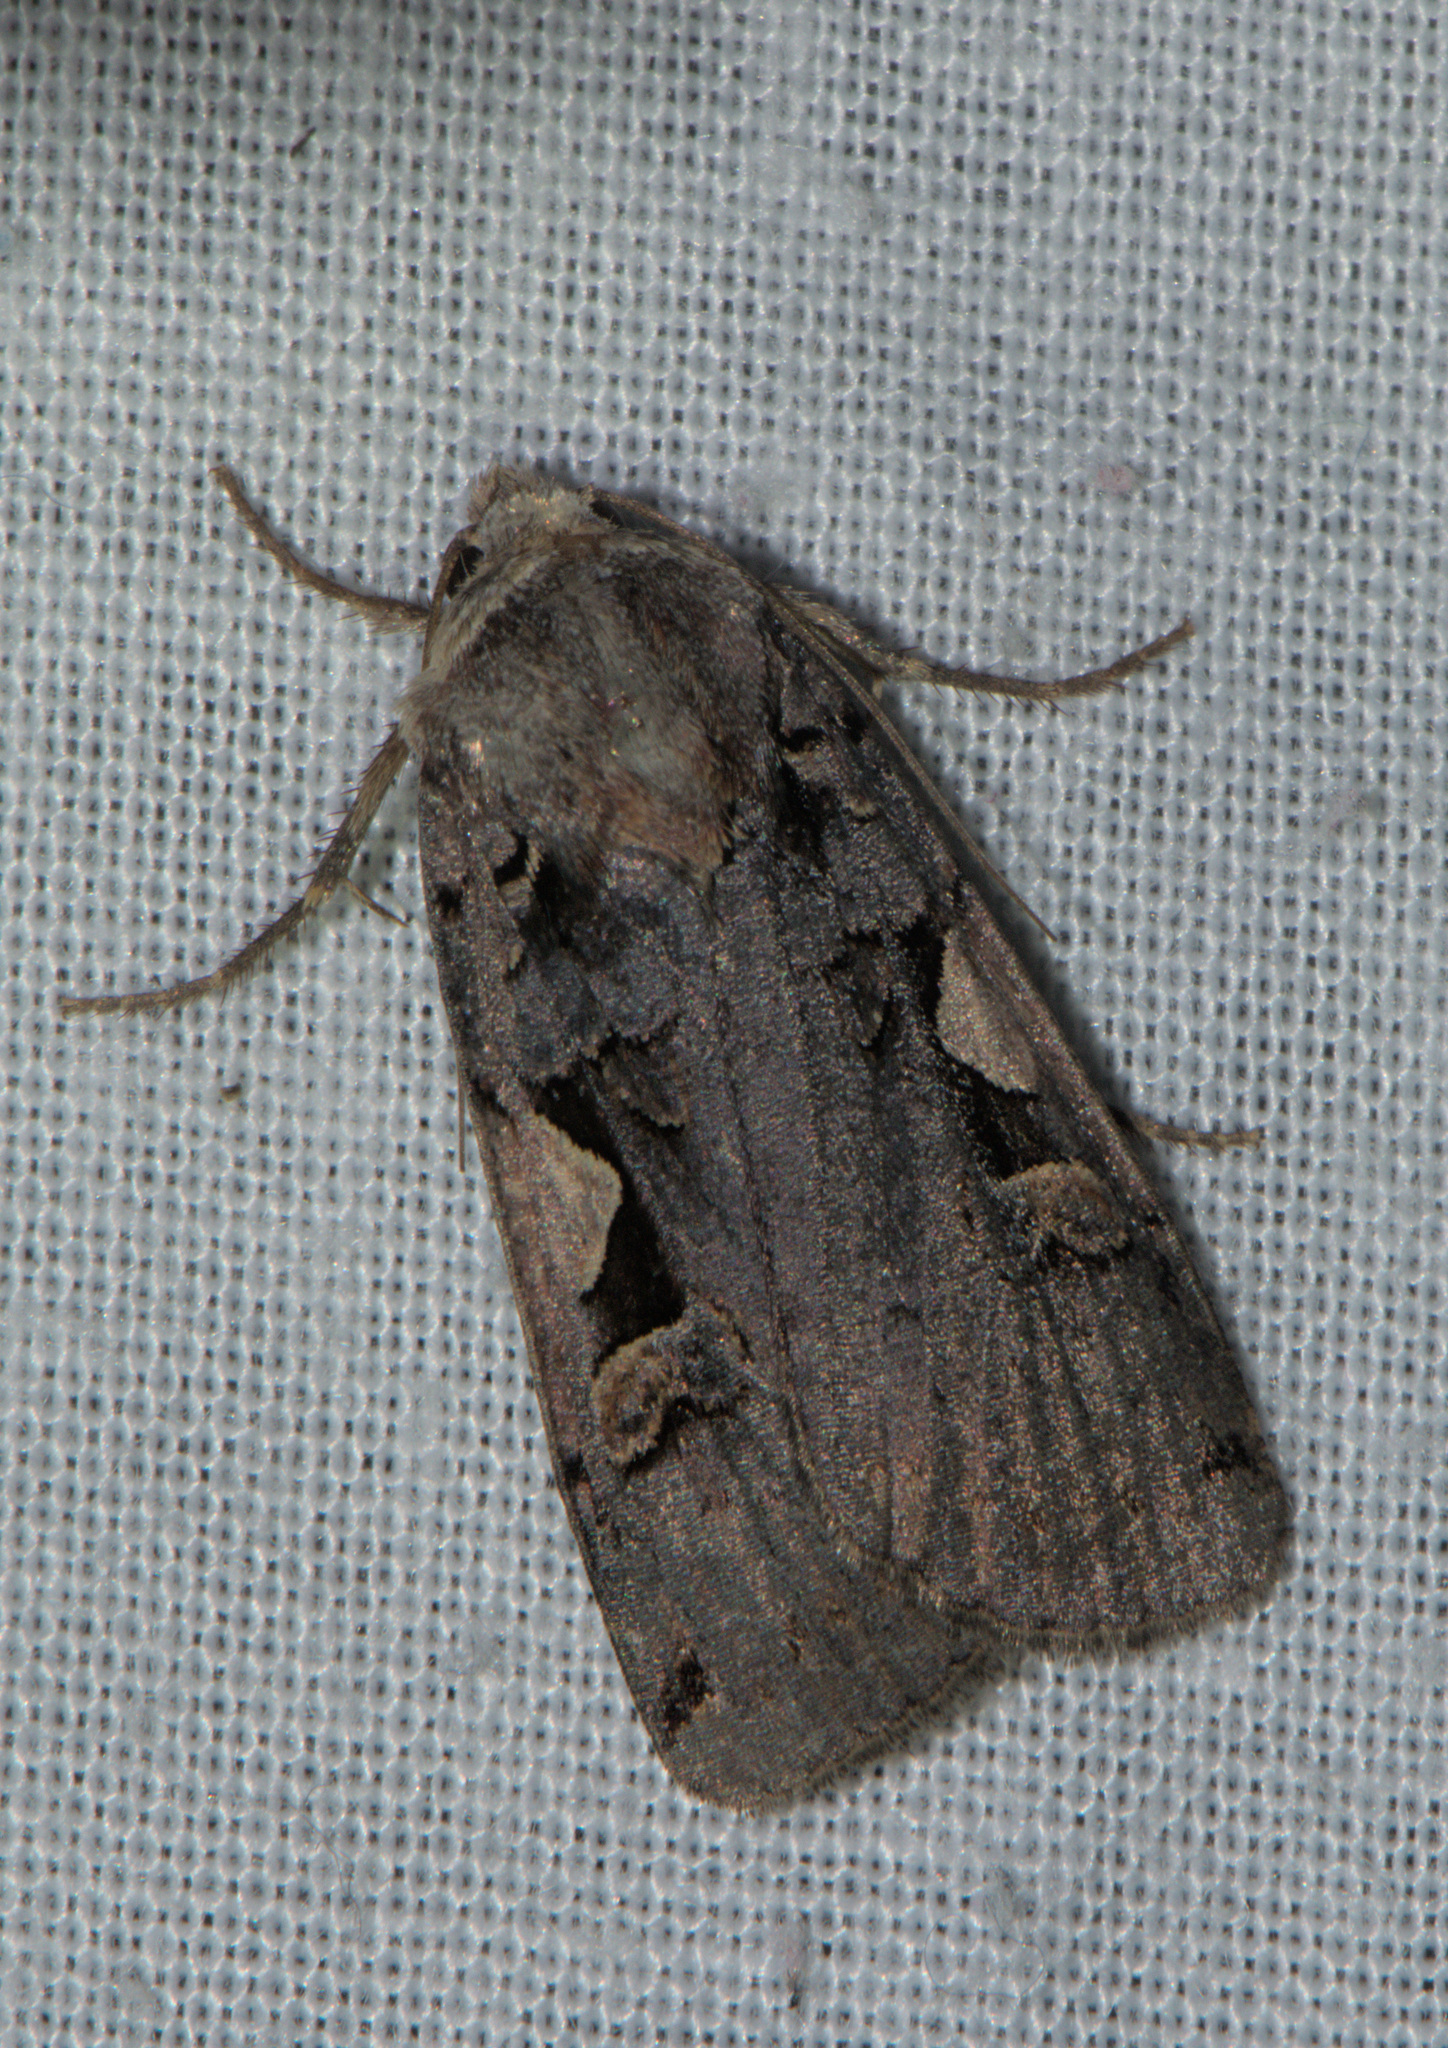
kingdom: Animalia
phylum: Arthropoda
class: Insecta
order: Lepidoptera
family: Noctuidae
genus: Xestia
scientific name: Xestia c-nigrum
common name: Setaceous hebrew character
